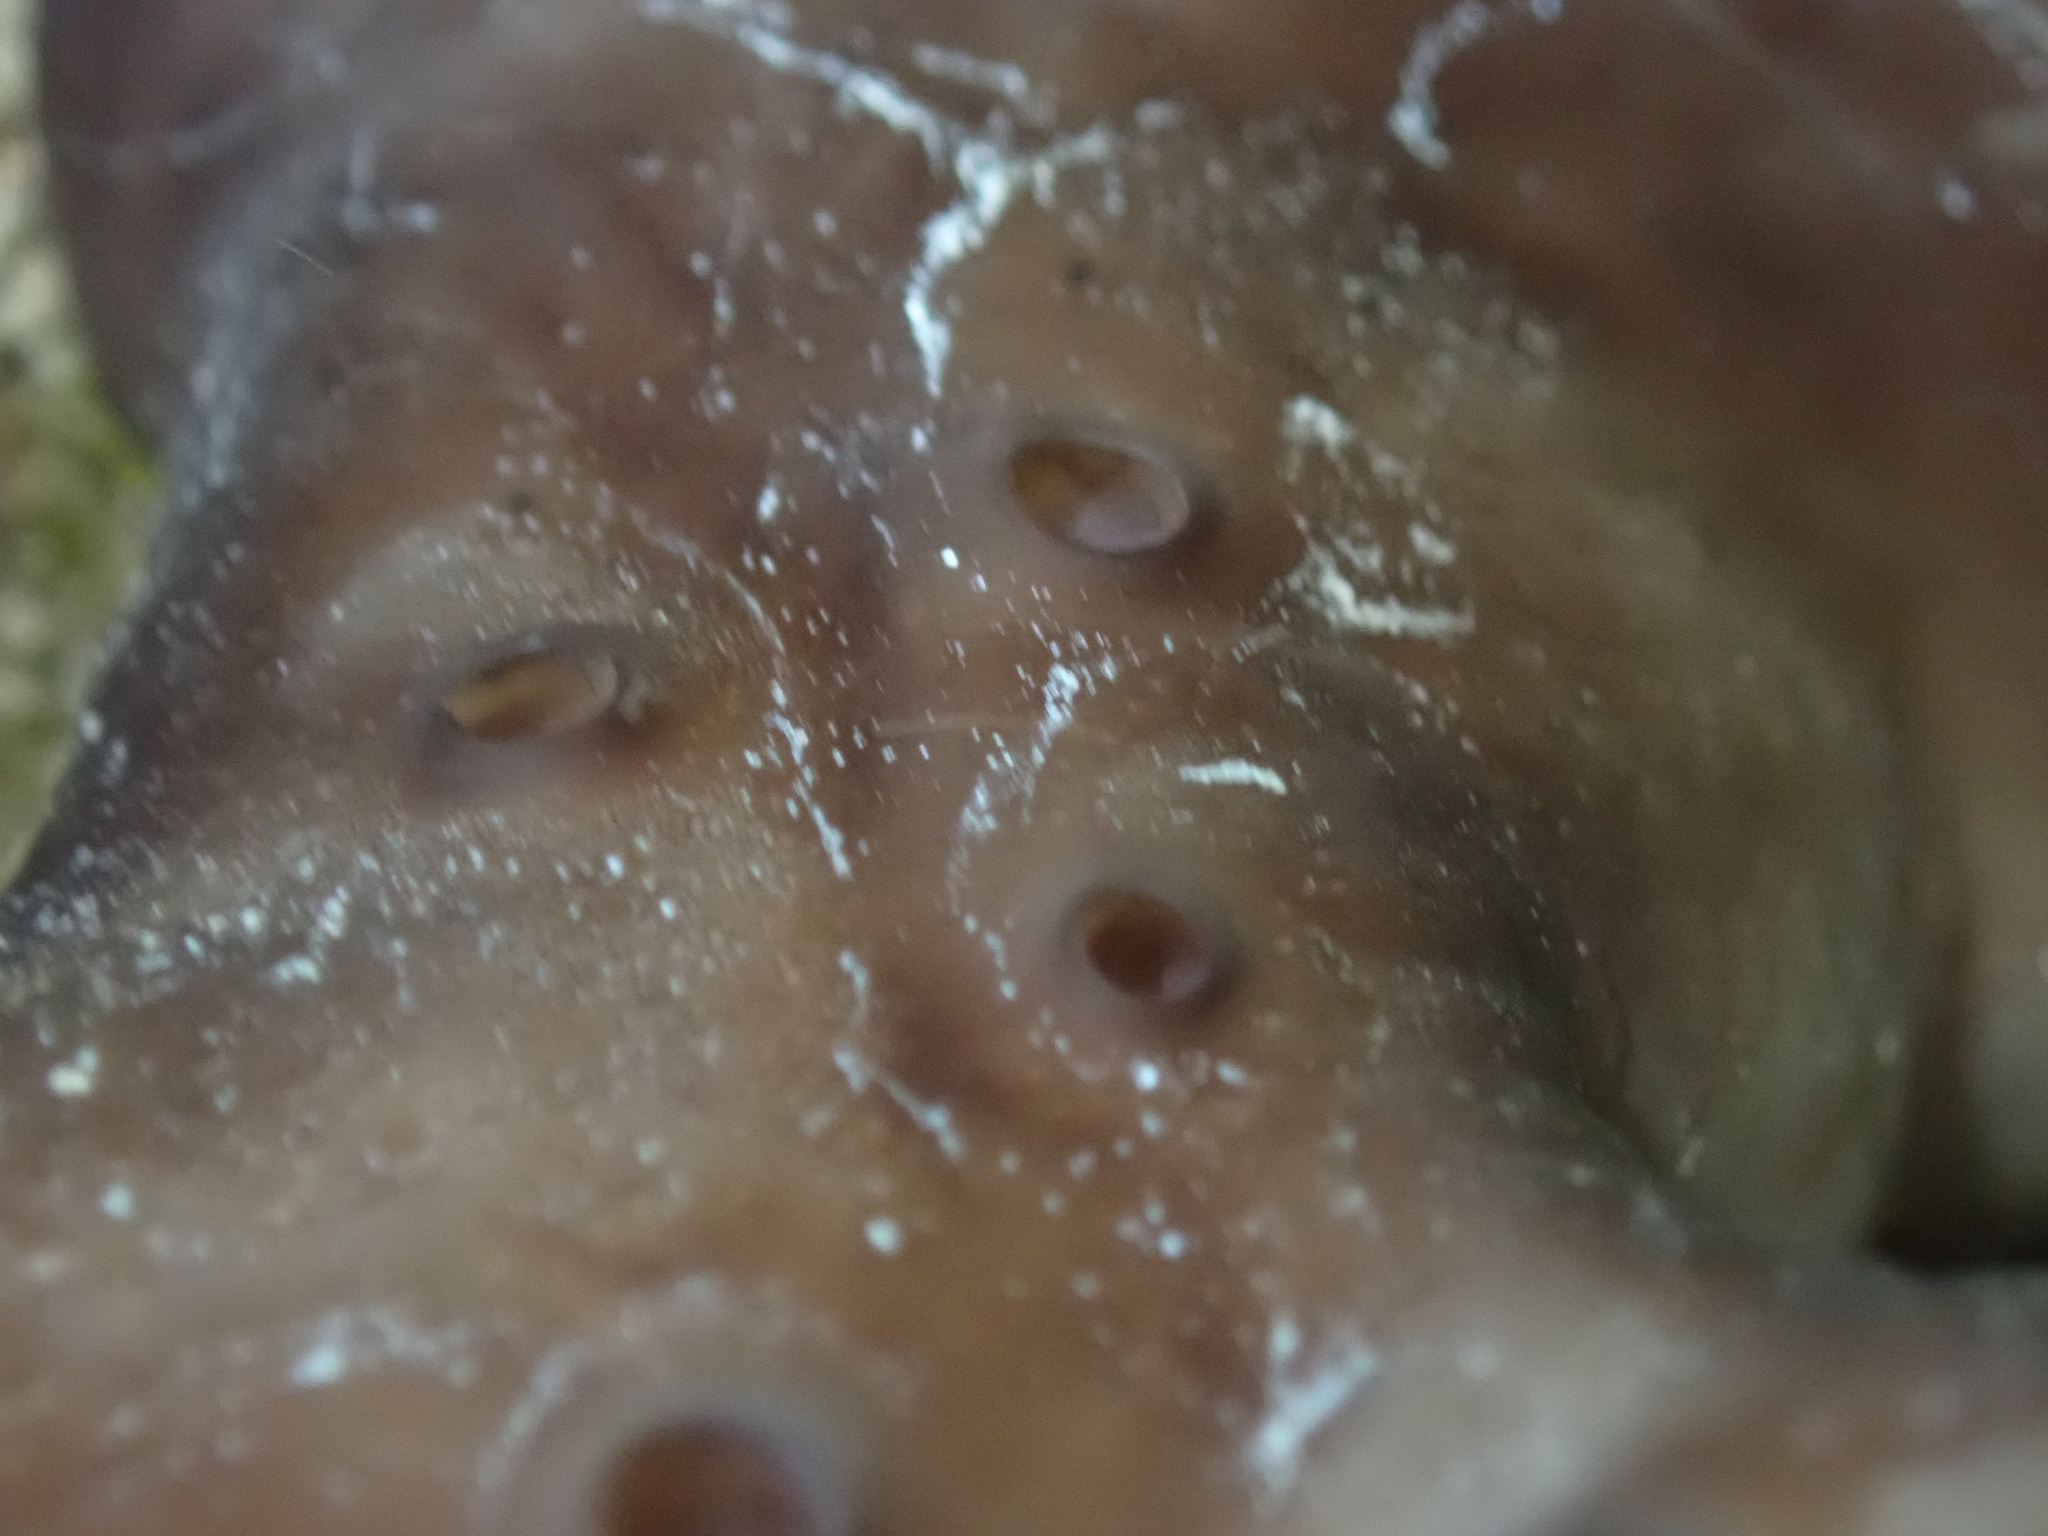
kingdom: Animalia
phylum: Porifera
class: Demospongiae
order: Chondrosiida
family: Chondrosiidae
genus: Chondrosia
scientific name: Chondrosia reniformis
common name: Chicken liver sponge
